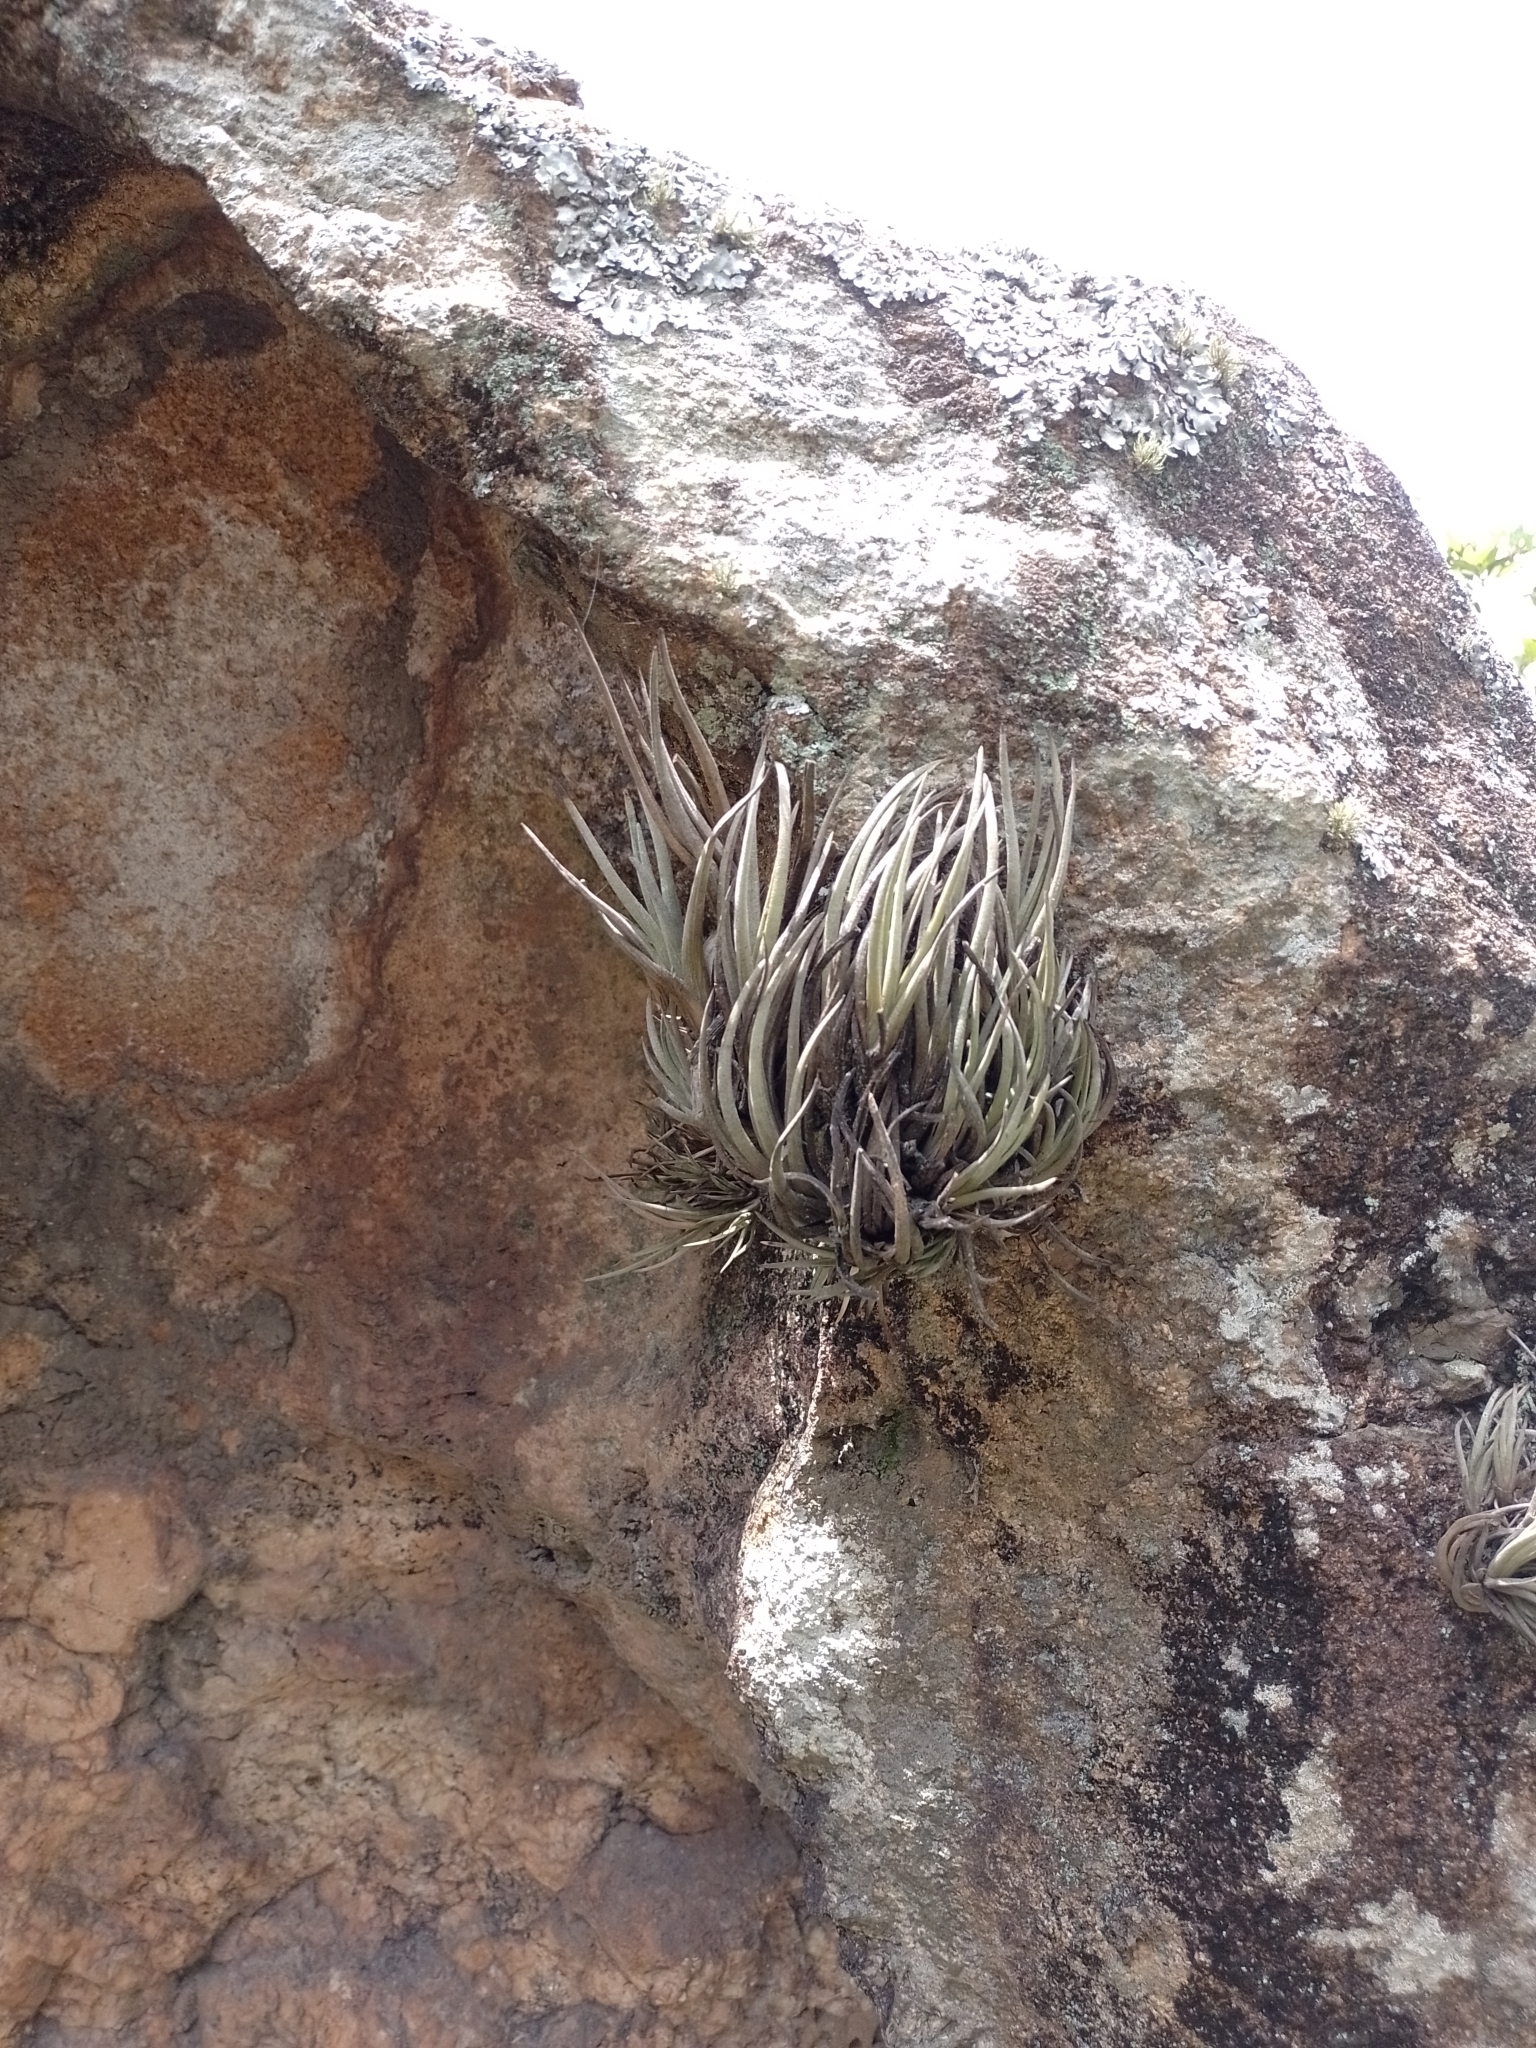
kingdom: Plantae
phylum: Tracheophyta
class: Liliopsida
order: Poales
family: Bromeliaceae
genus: Tillandsia
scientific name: Tillandsia argentina
